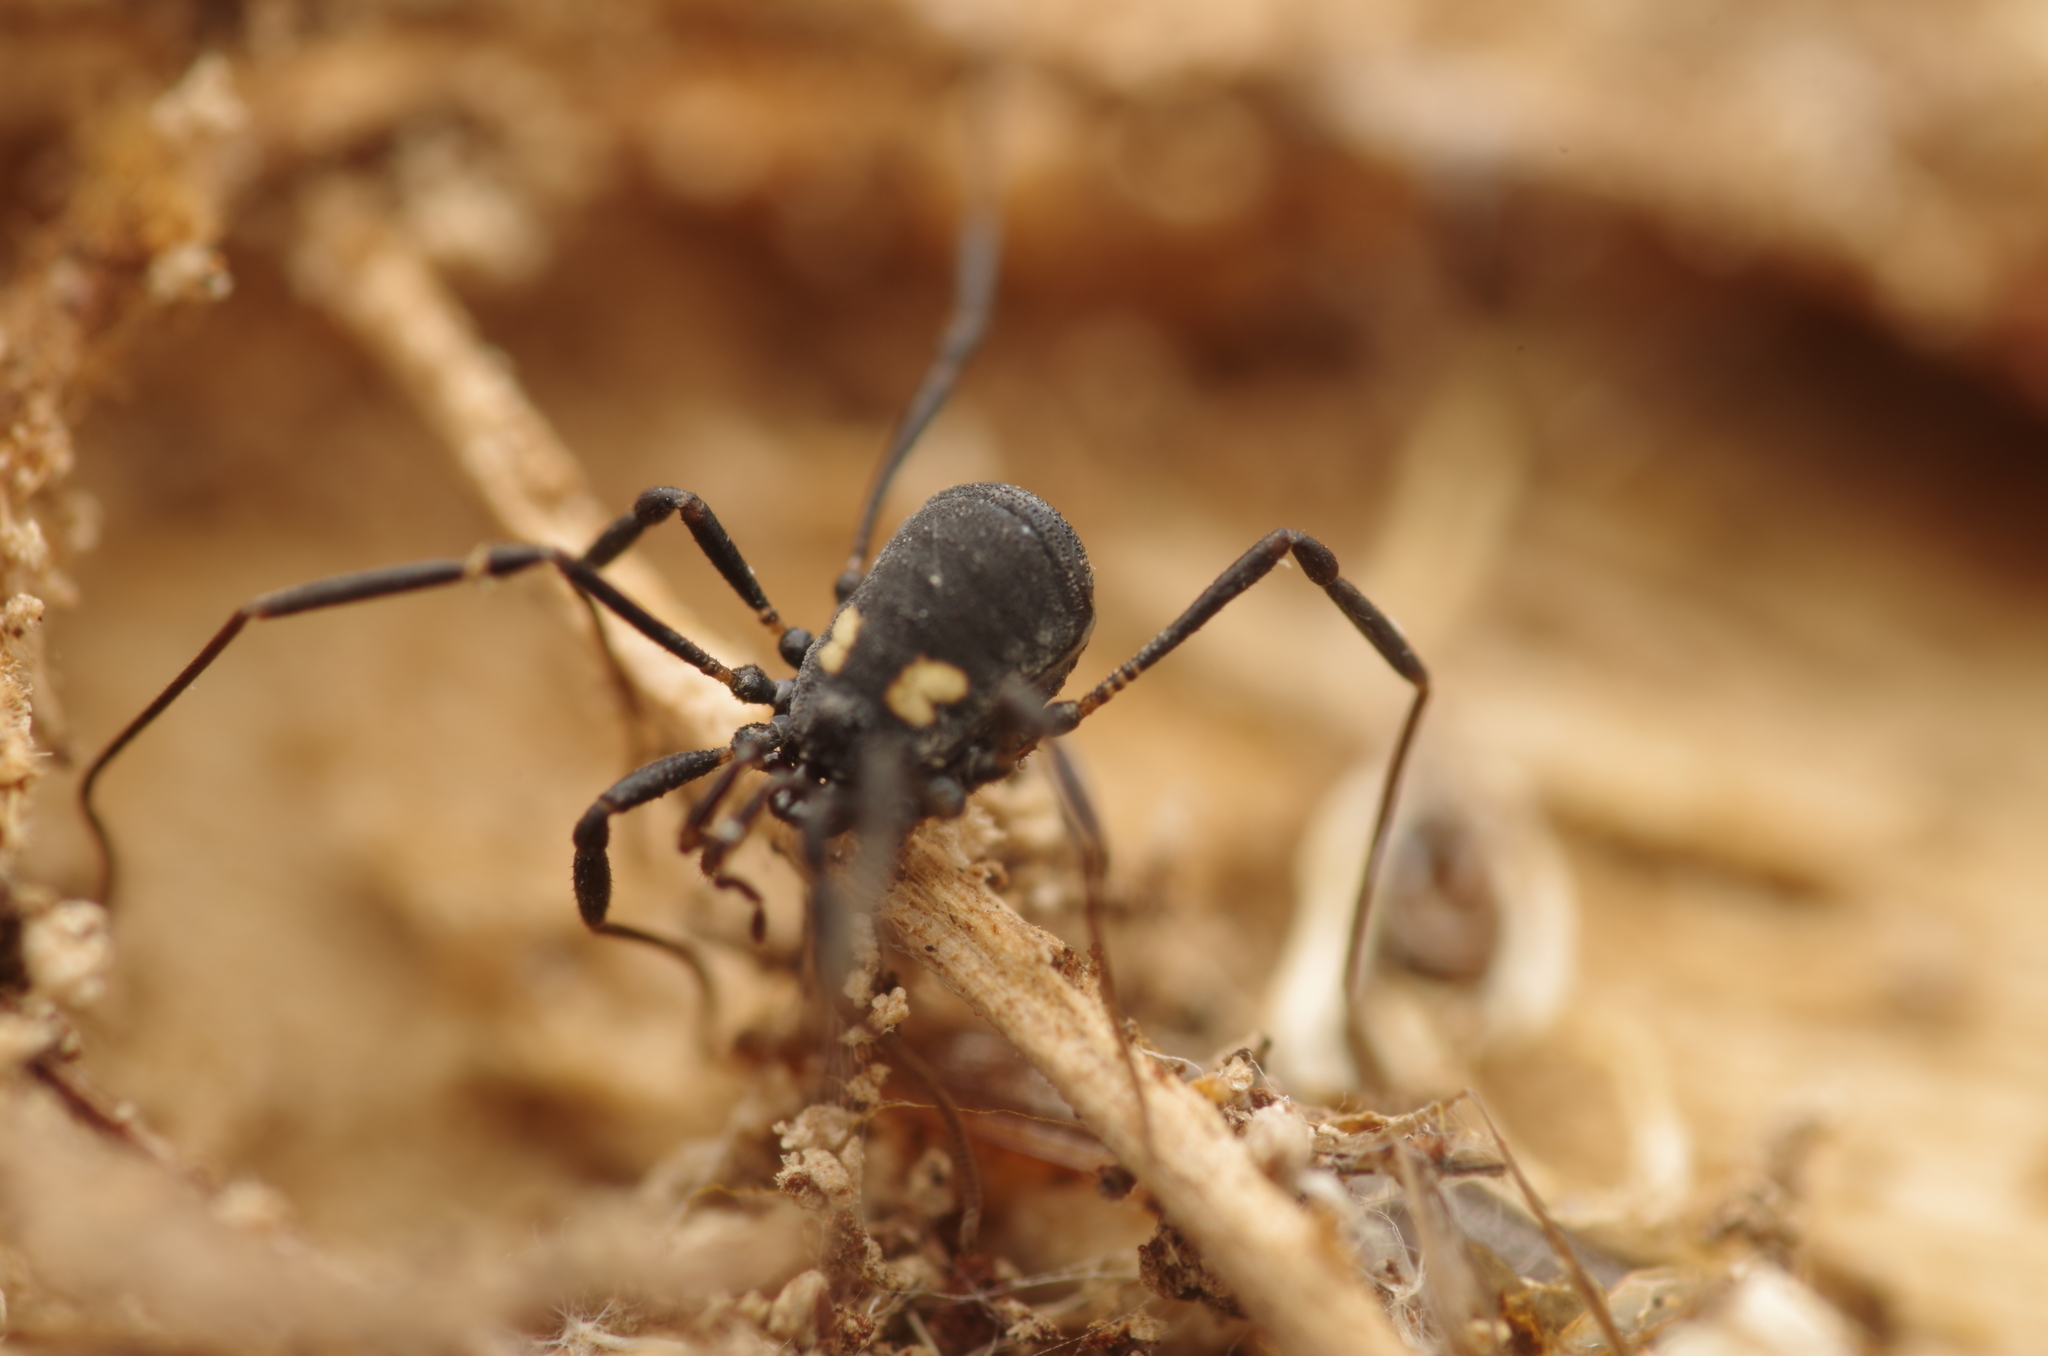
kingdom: Animalia
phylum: Arthropoda
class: Arachnida
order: Opiliones
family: Nemastomatidae
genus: Nemastoma
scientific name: Nemastoma bimaculatum
